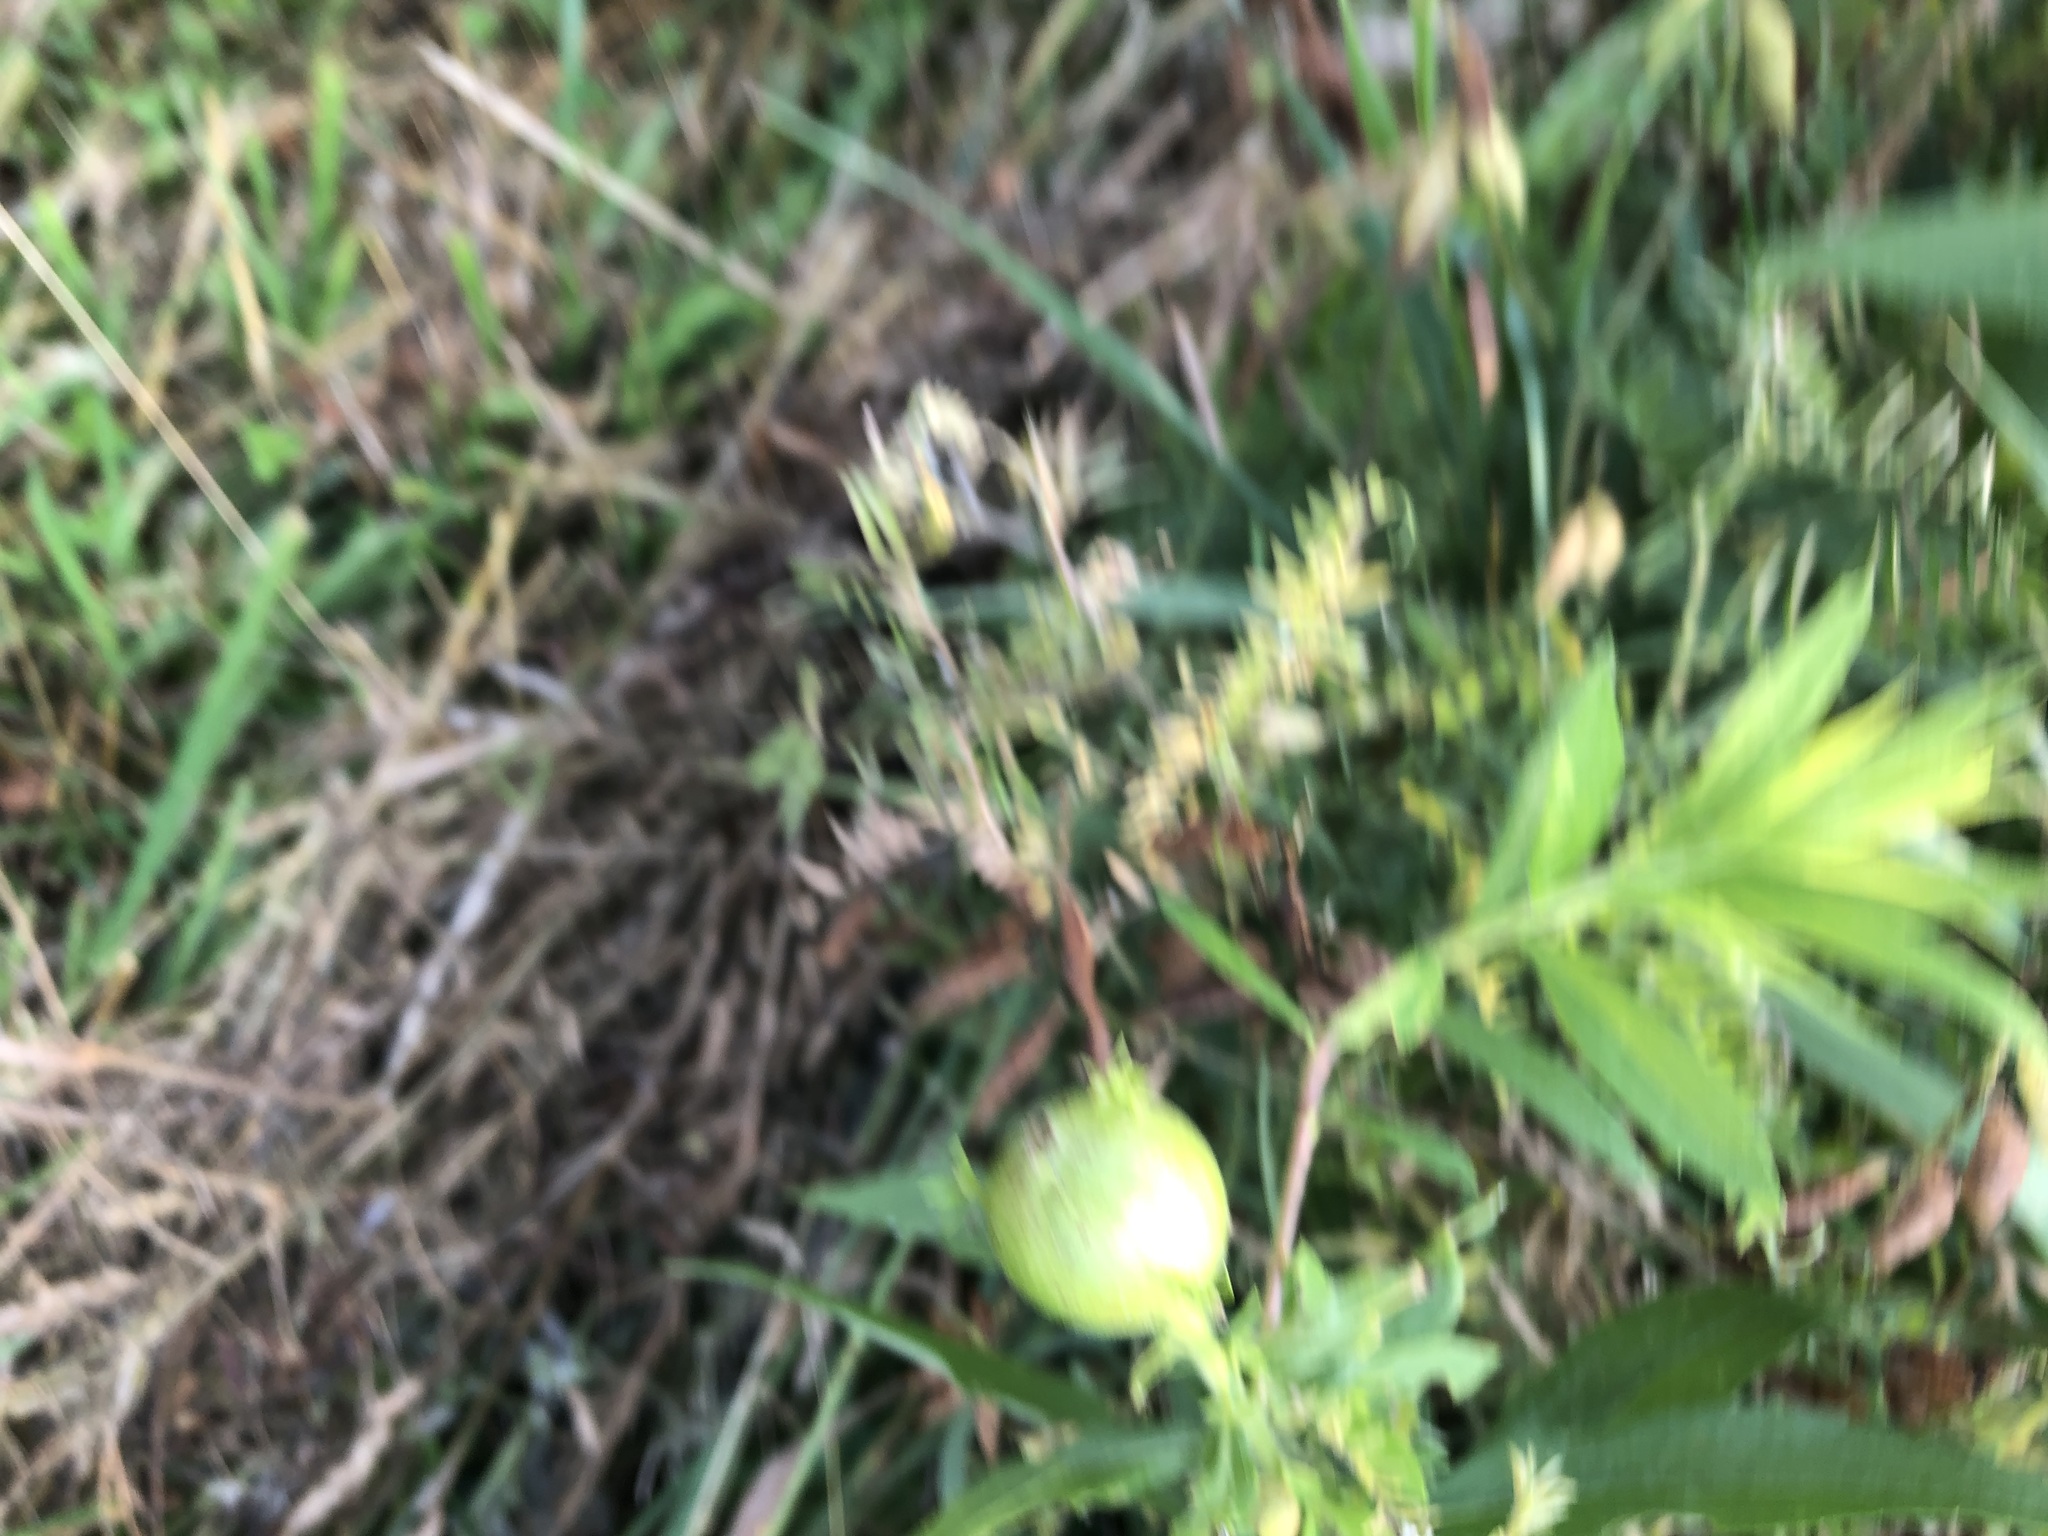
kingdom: Animalia
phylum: Arthropoda
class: Insecta
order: Diptera
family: Tephritidae
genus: Eurosta
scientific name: Eurosta solidaginis
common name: Goldenrod gall fly
